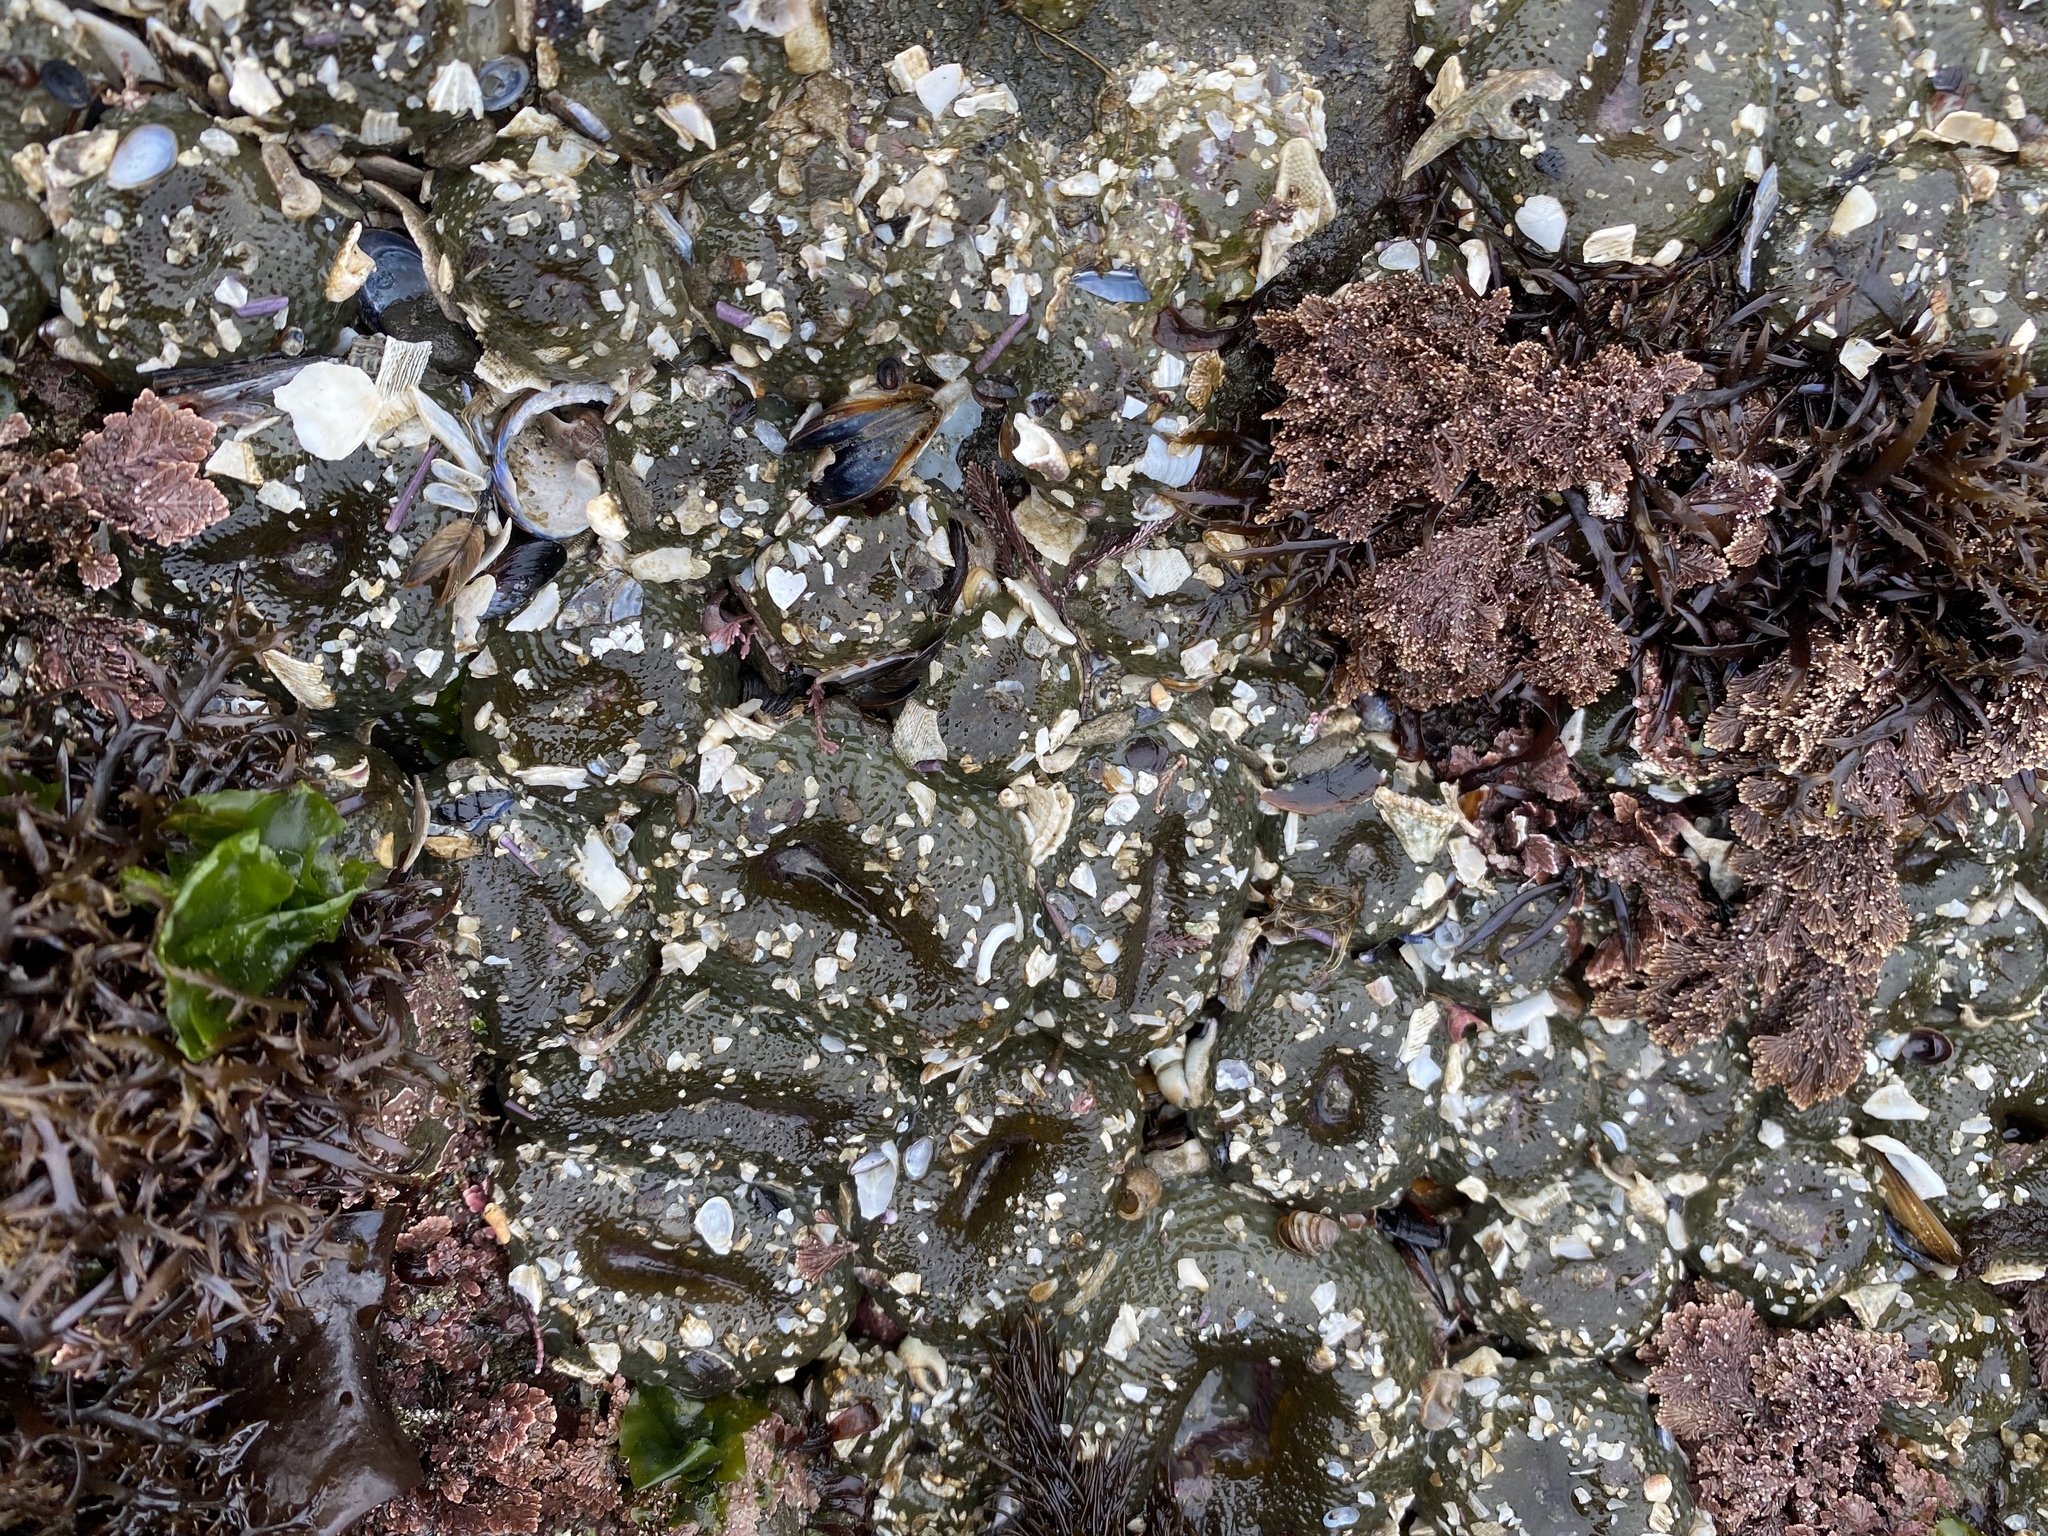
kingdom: Animalia
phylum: Cnidaria
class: Anthozoa
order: Actiniaria
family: Actiniidae
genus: Anthopleura
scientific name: Anthopleura elegantissima
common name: Clonal anemone
